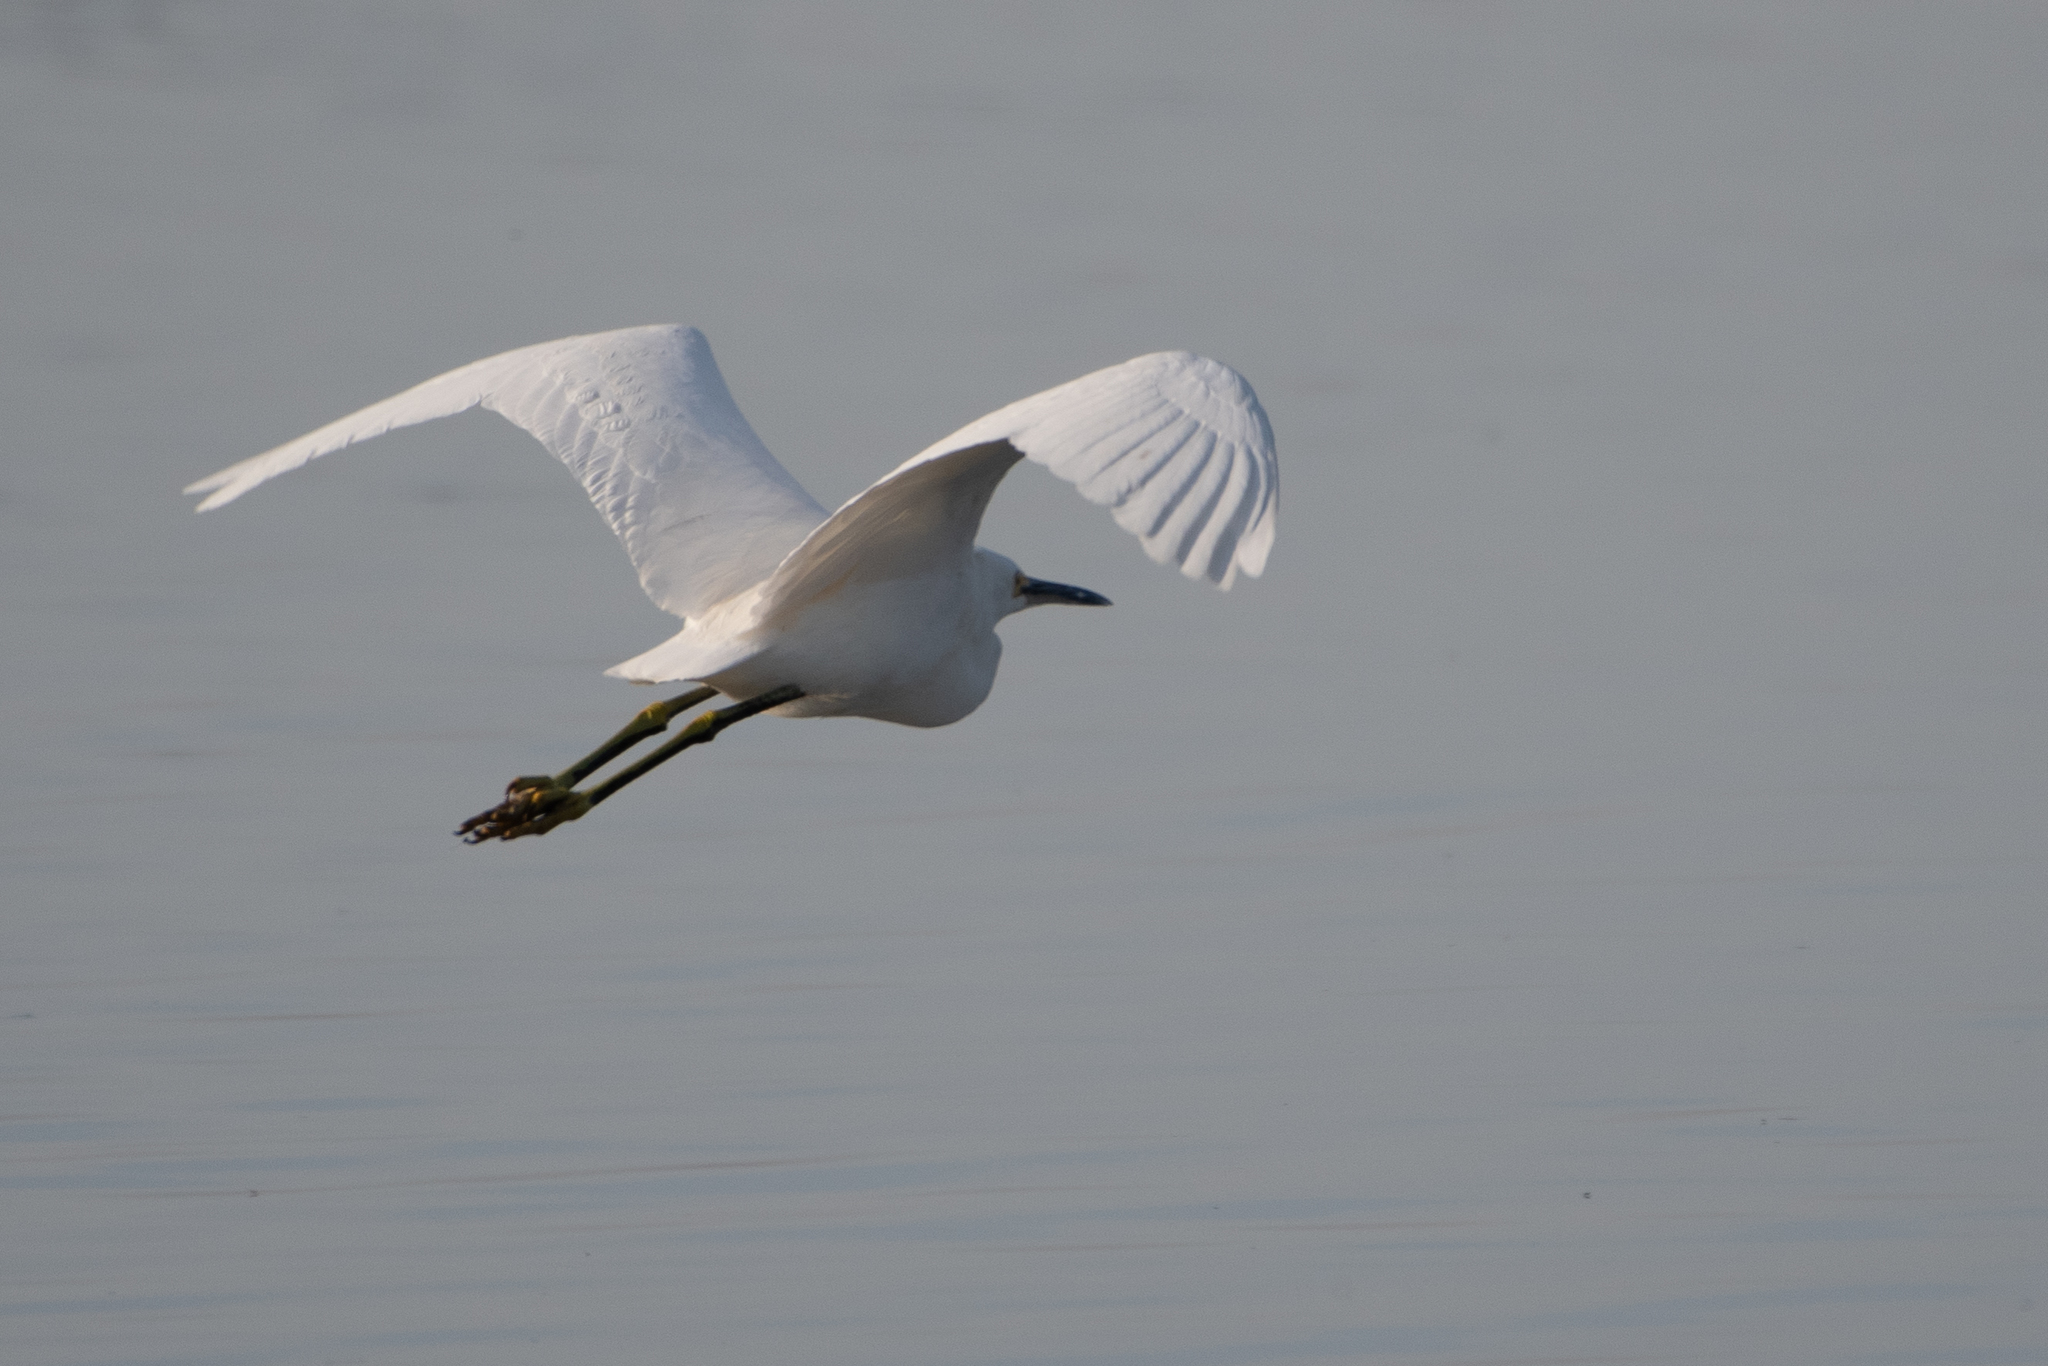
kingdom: Animalia
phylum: Chordata
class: Aves
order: Pelecaniformes
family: Ardeidae
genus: Egretta
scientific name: Egretta thula
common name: Snowy egret
